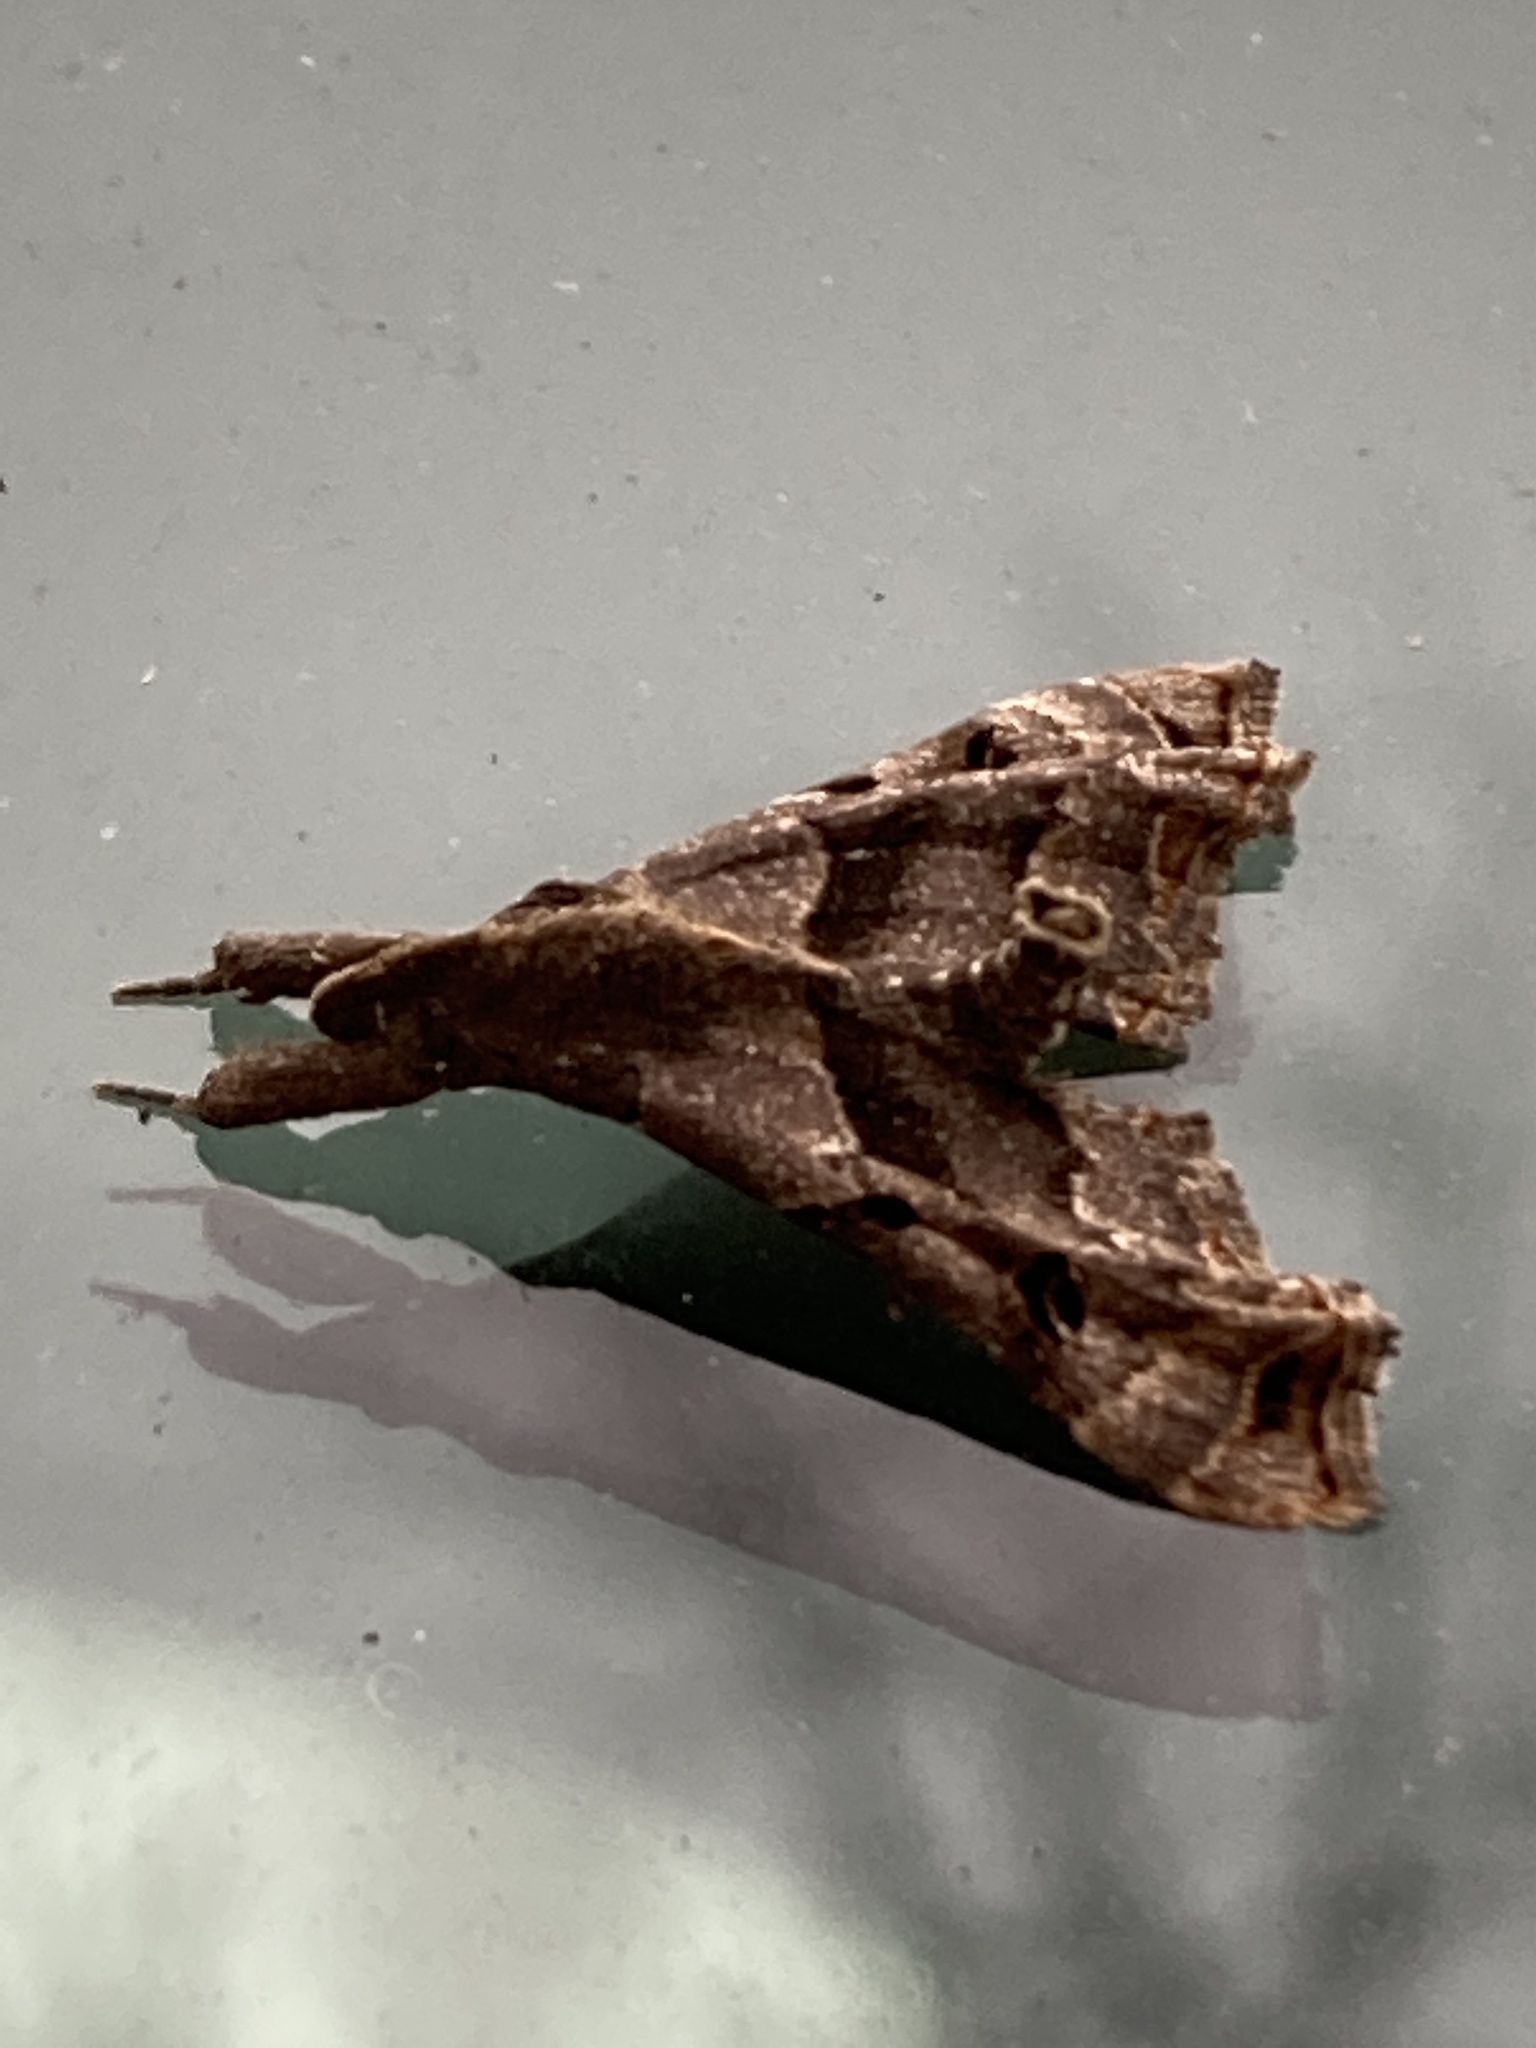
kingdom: Animalia
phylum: Arthropoda
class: Insecta
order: Lepidoptera
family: Erebidae
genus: Palthis
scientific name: Palthis asopialis
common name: Faint-spotted palthis moth
